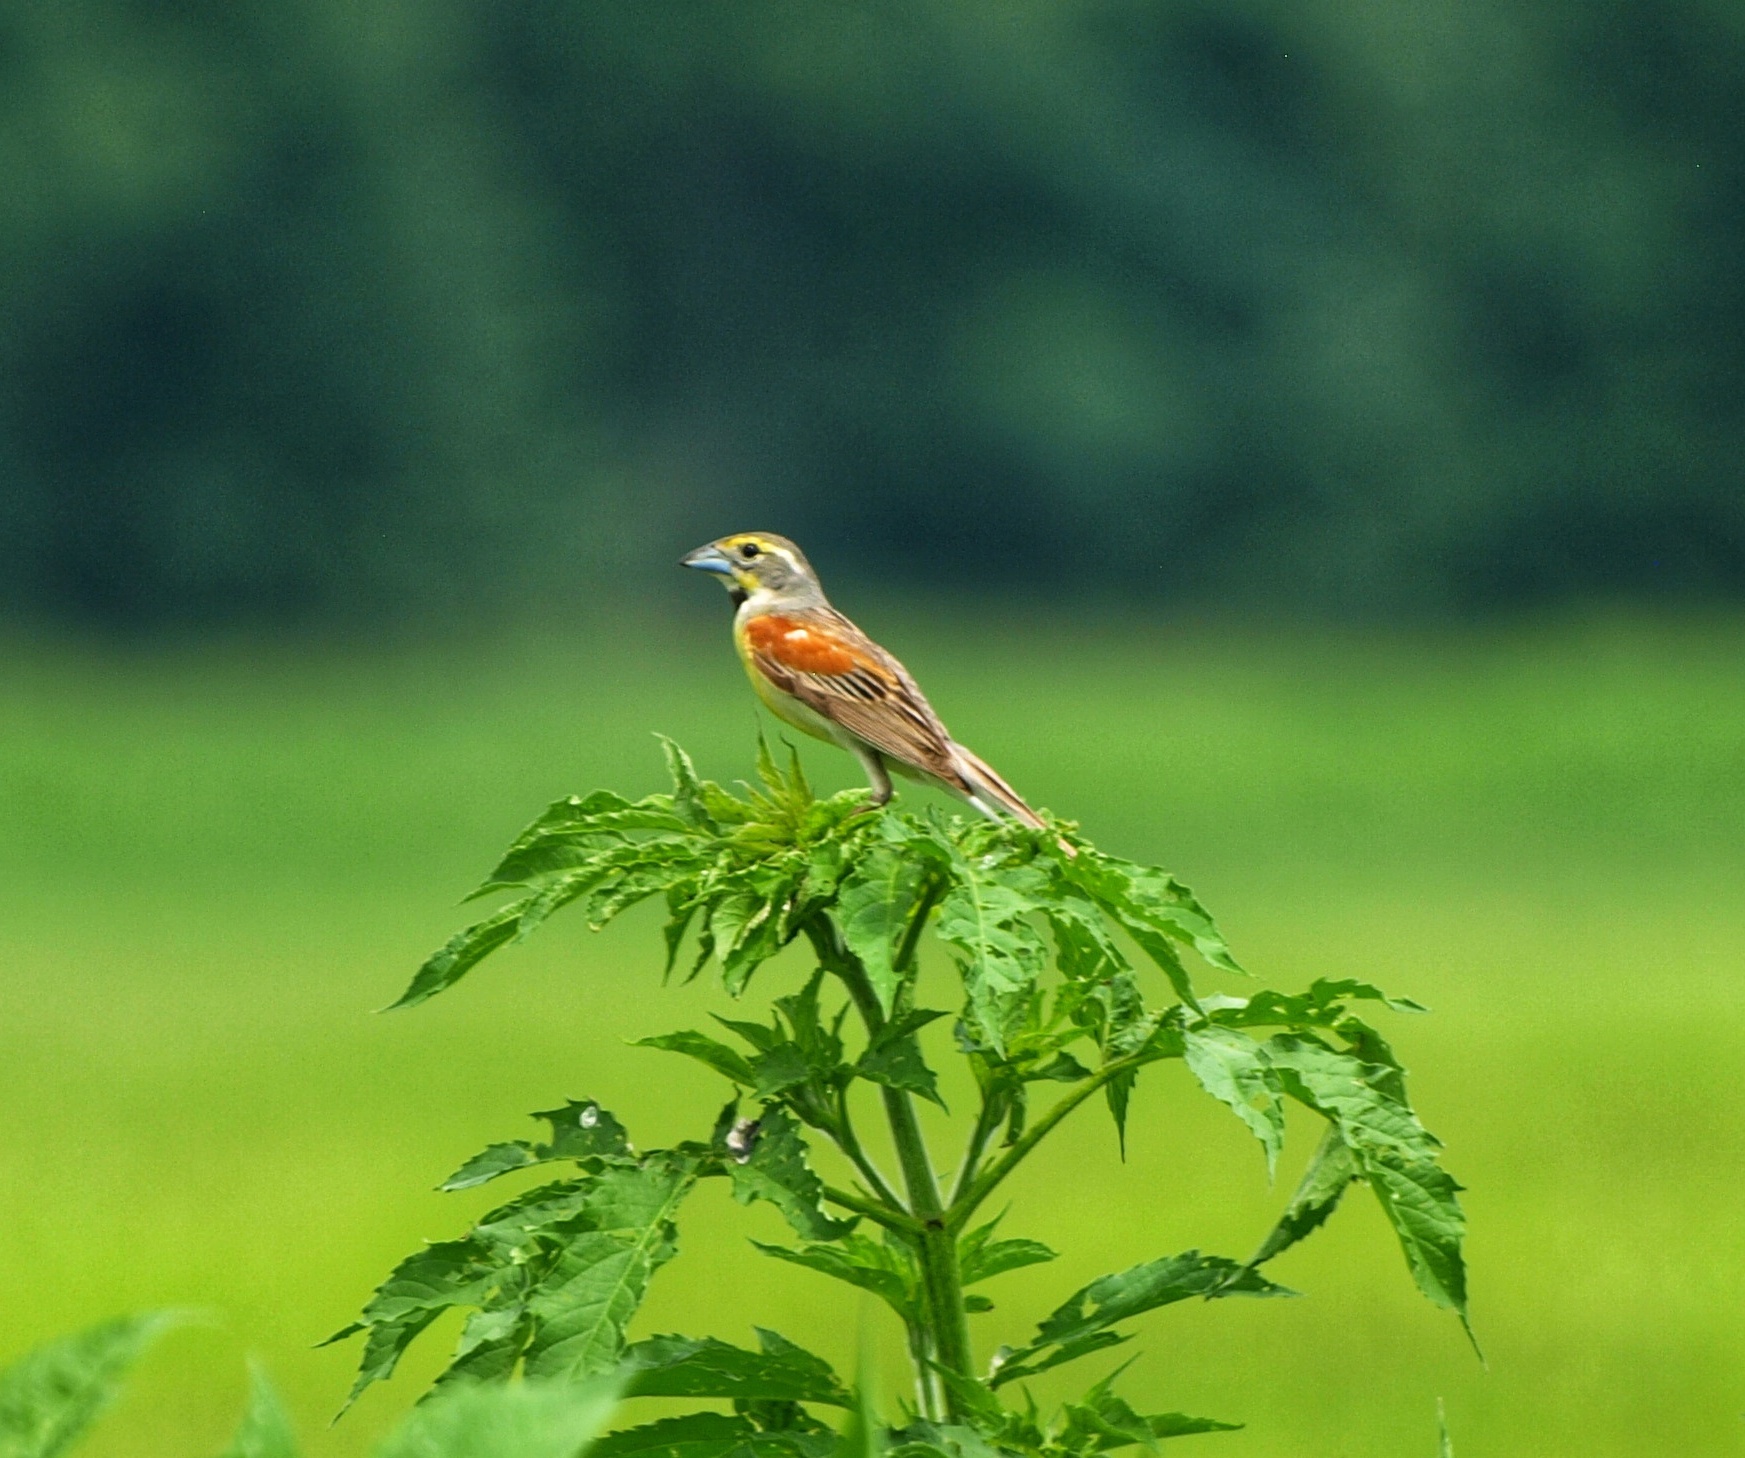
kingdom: Animalia
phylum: Chordata
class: Aves
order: Passeriformes
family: Cardinalidae
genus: Spiza
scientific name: Spiza americana
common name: Dickcissel
